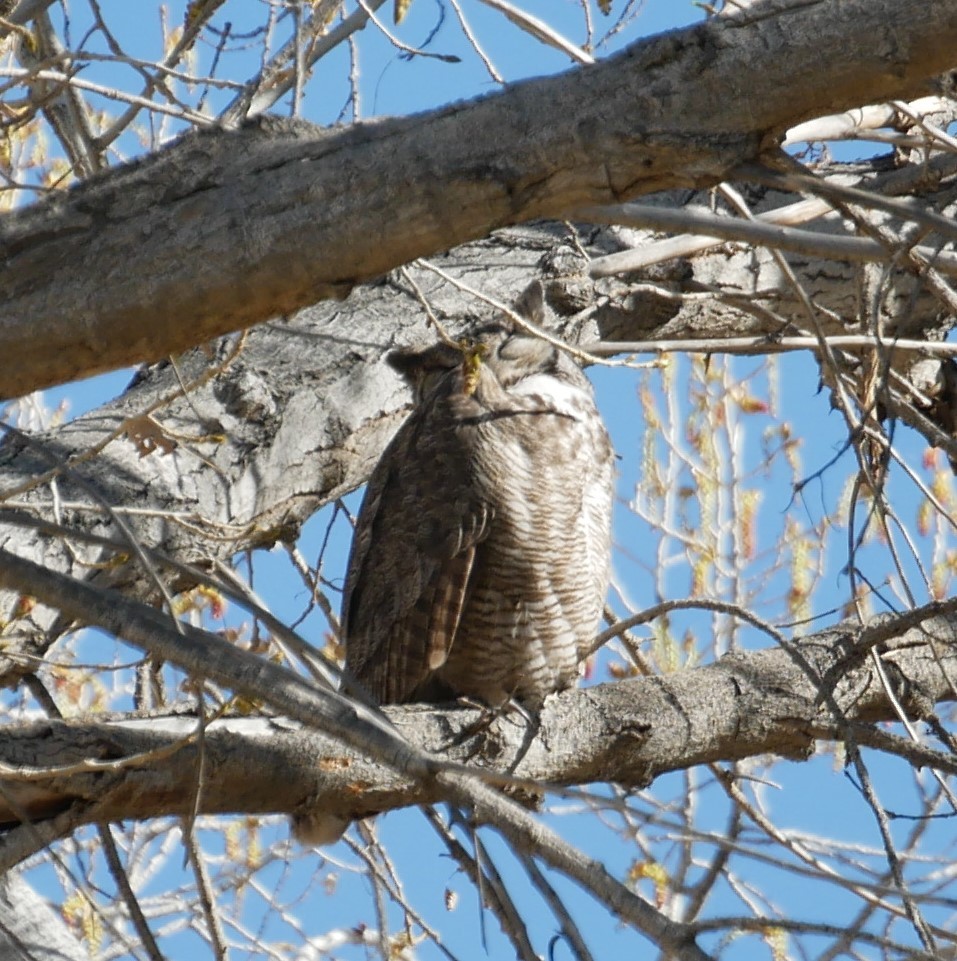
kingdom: Animalia
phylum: Chordata
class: Aves
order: Strigiformes
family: Strigidae
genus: Bubo
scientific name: Bubo virginianus
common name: Great horned owl
